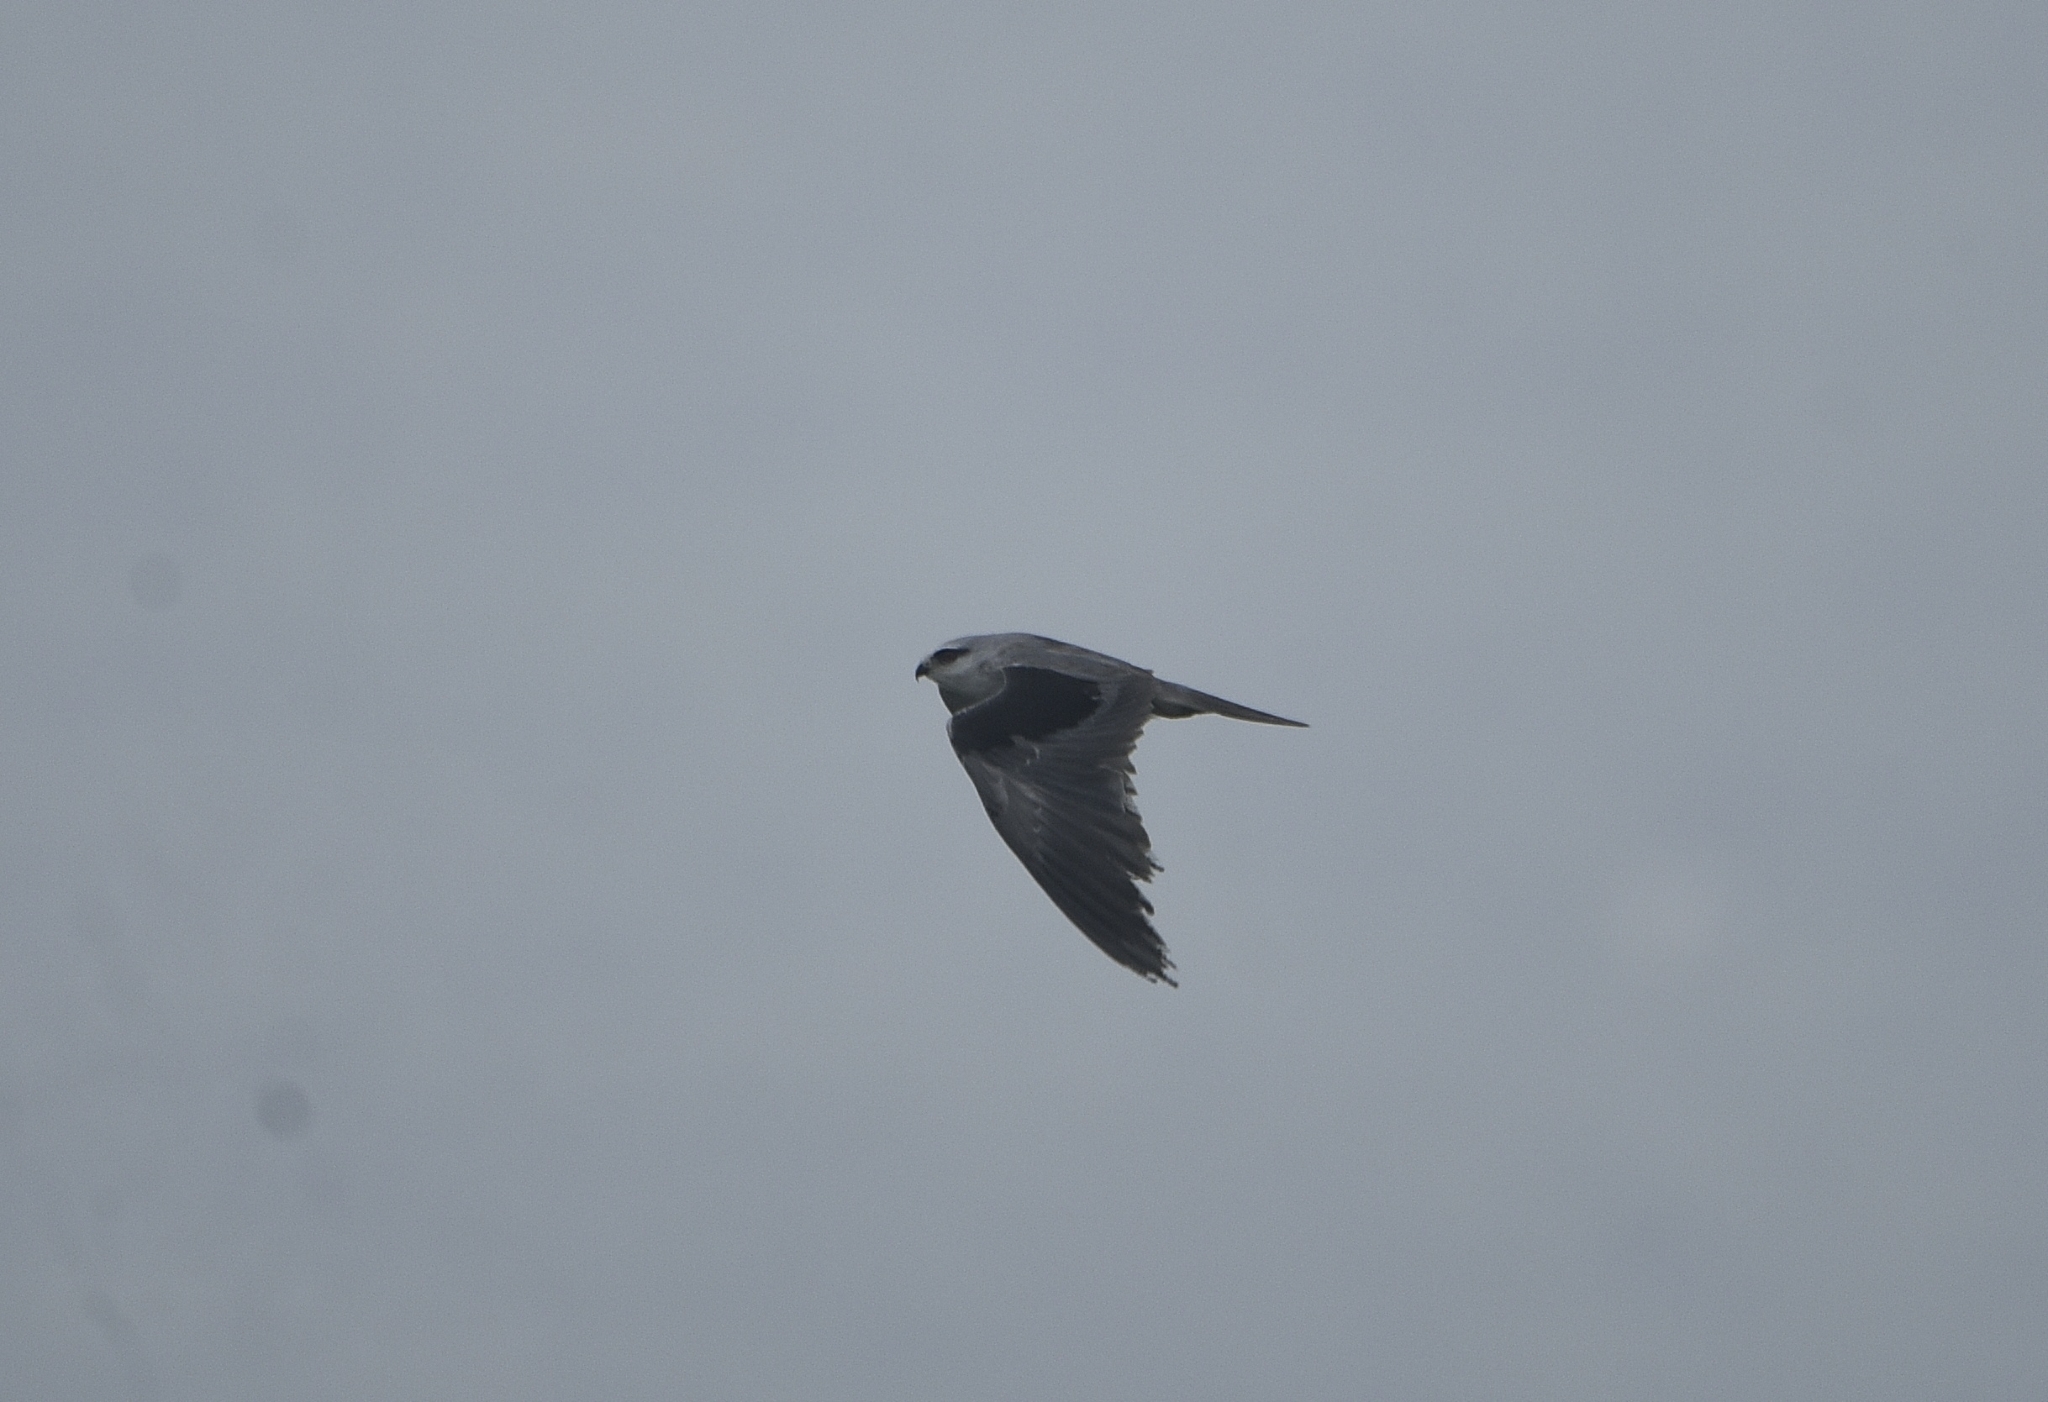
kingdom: Animalia
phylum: Chordata
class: Aves
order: Accipitriformes
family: Accipitridae
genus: Elanus
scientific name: Elanus caeruleus
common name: Black-winged kite
